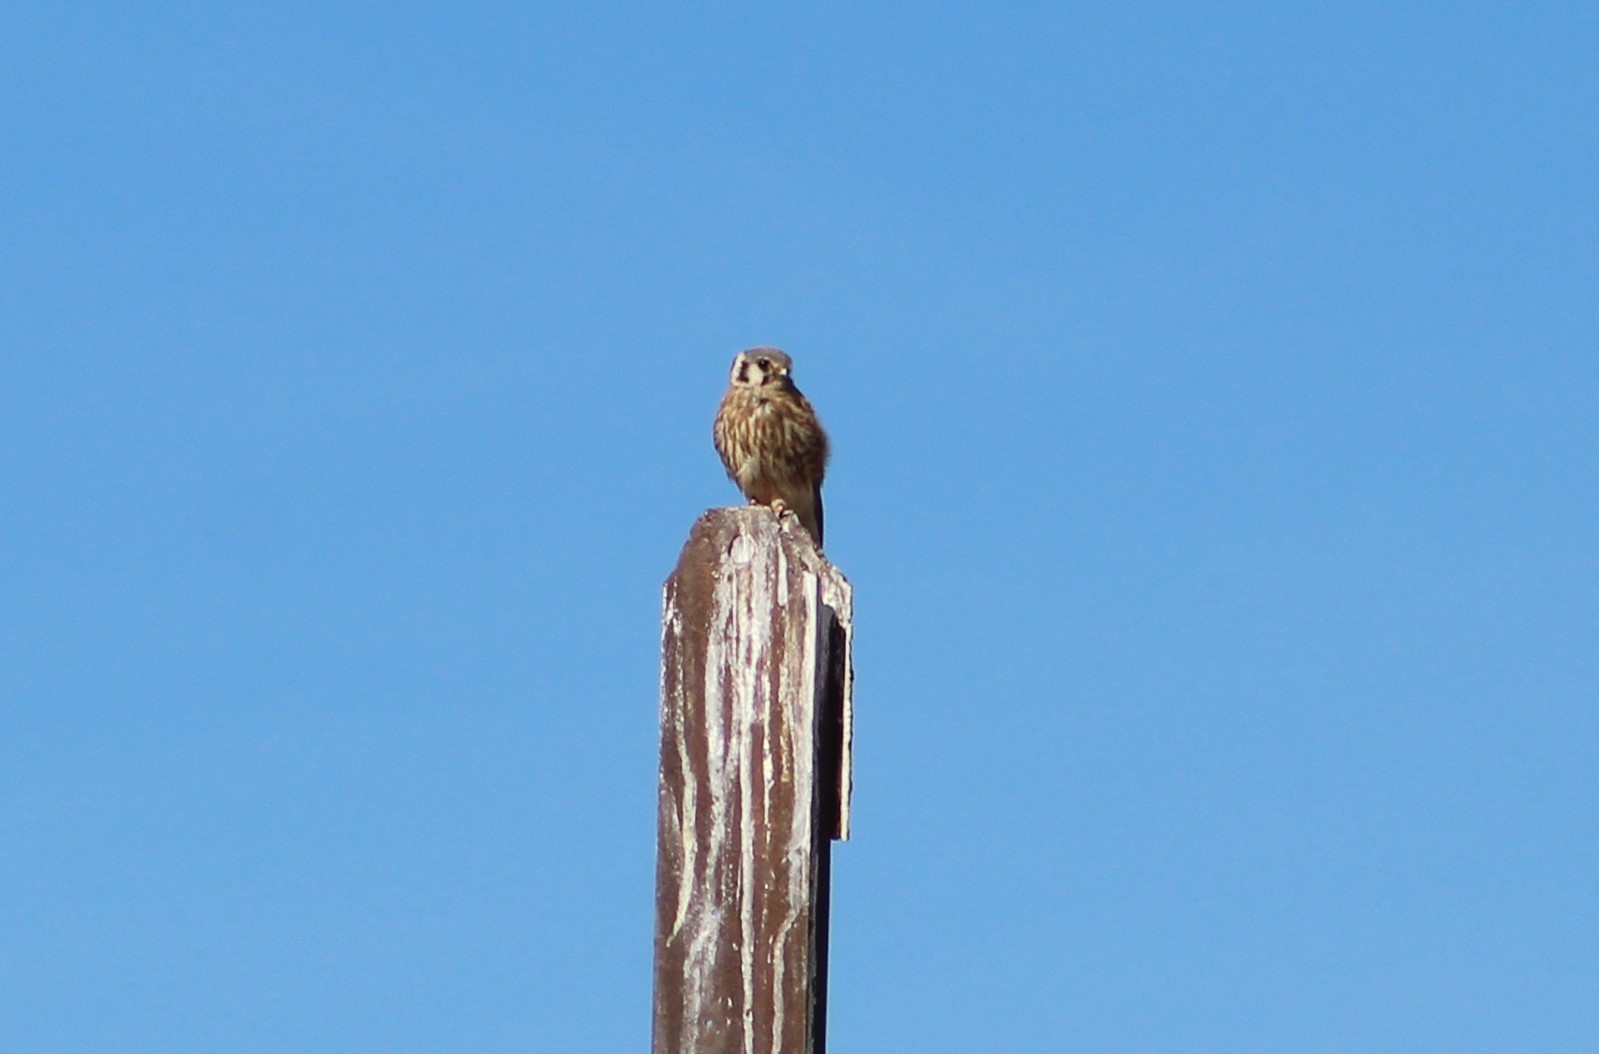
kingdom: Animalia
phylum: Chordata
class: Aves
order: Falconiformes
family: Falconidae
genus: Falco
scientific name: Falco sparverius
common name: American kestrel
